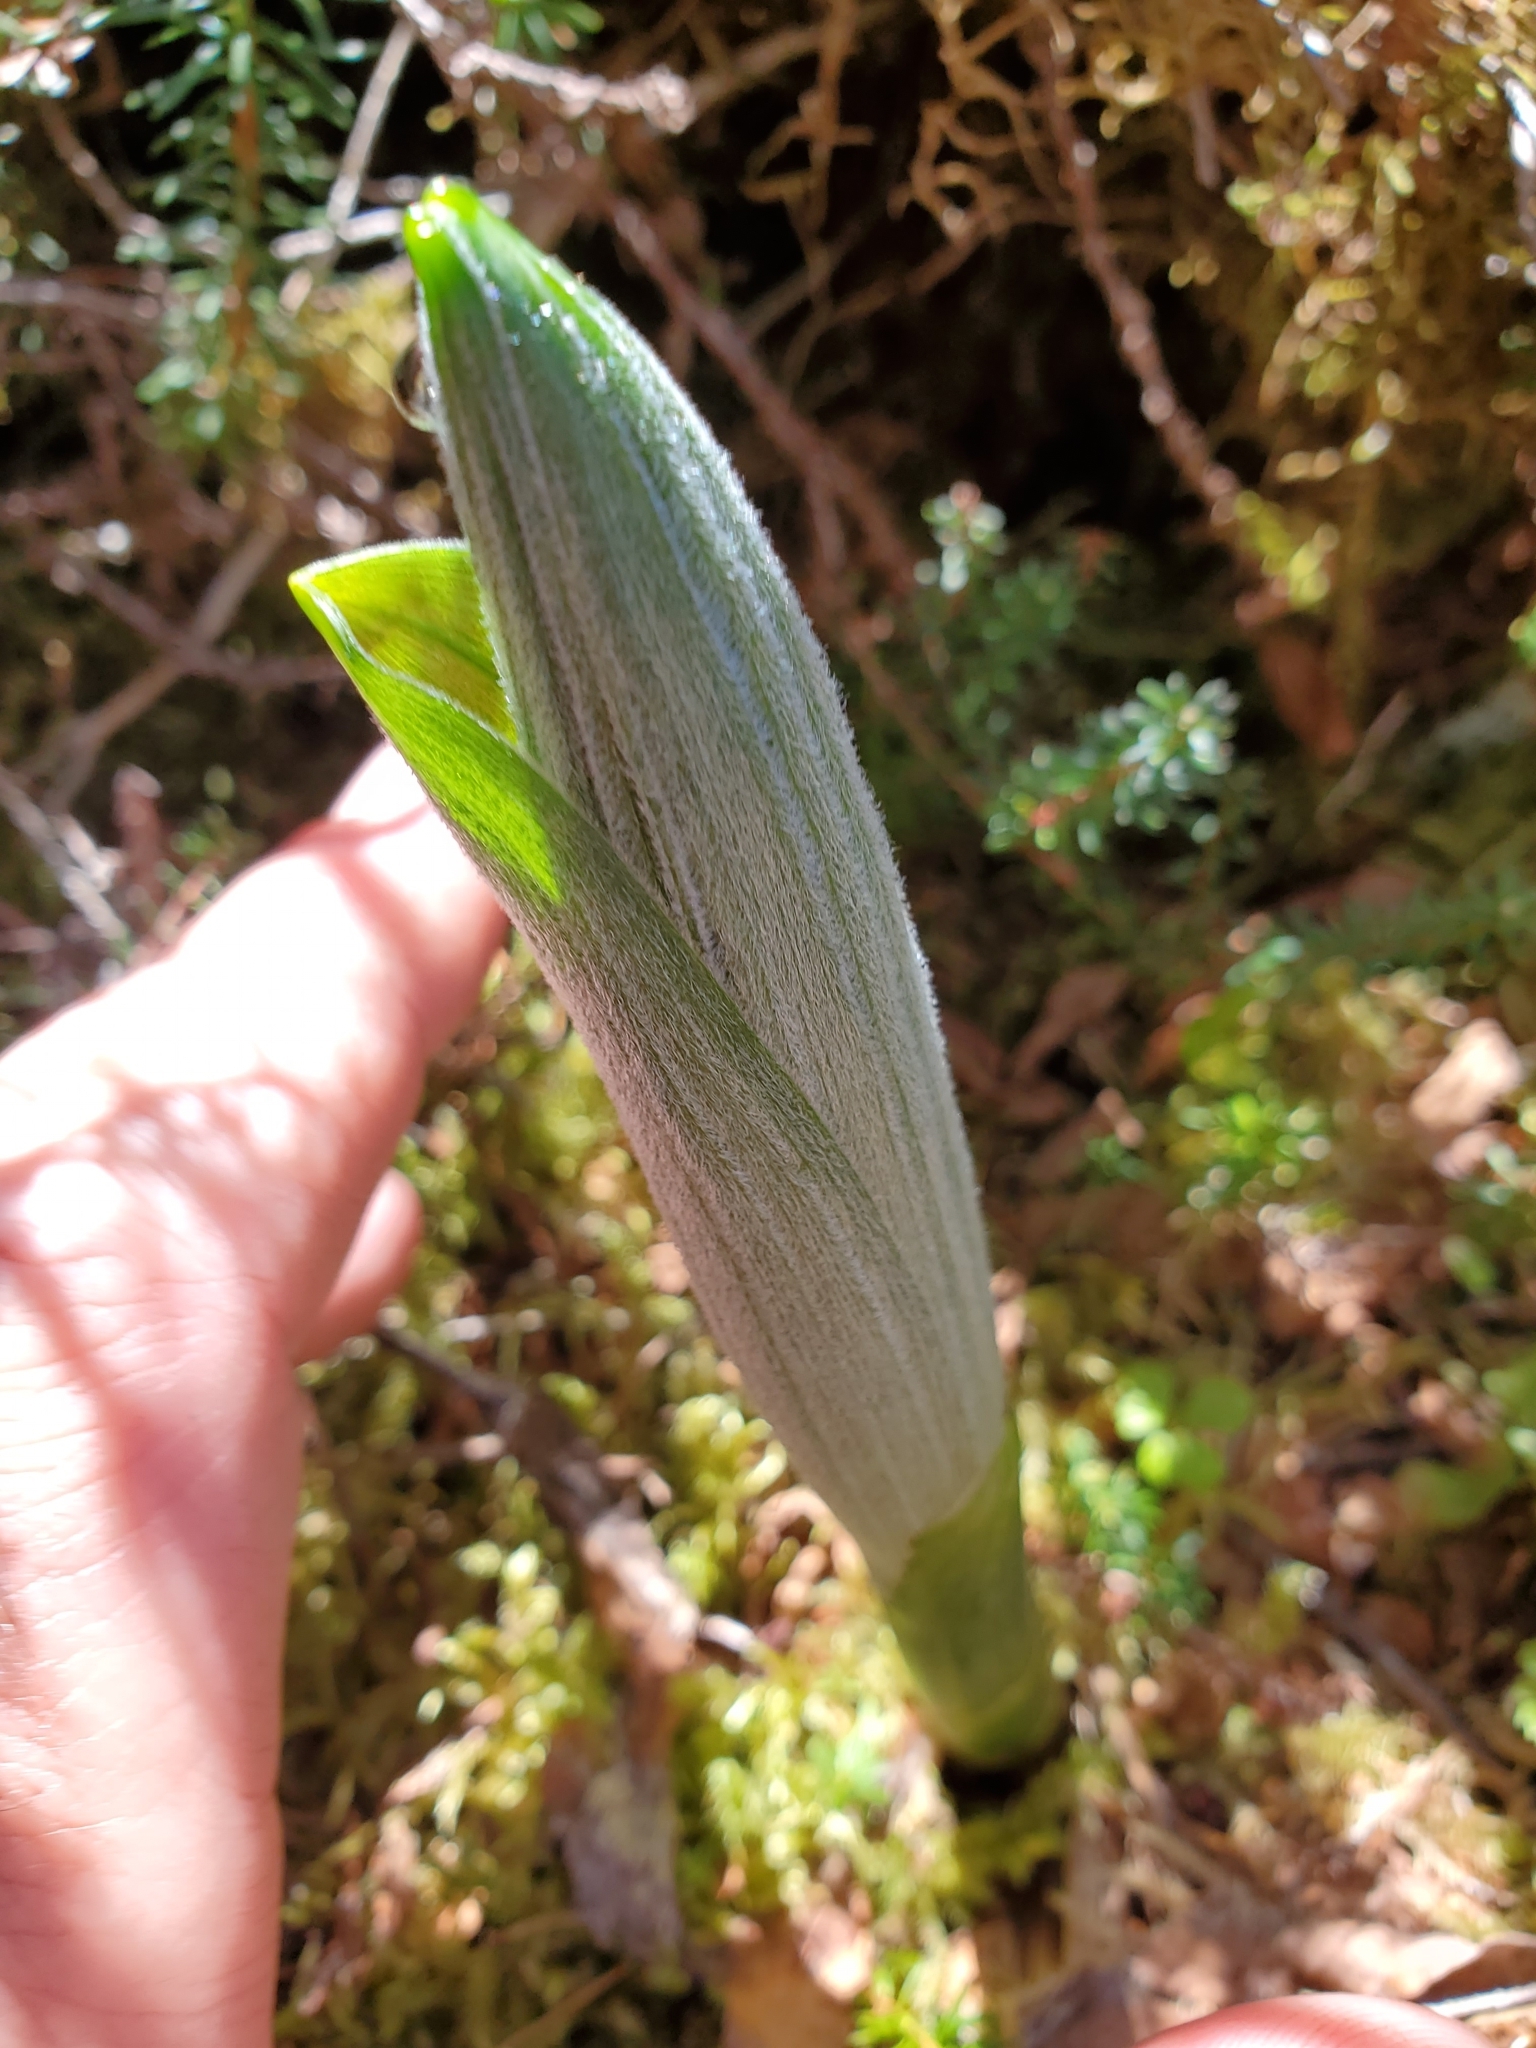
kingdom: Plantae
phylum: Tracheophyta
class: Liliopsida
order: Liliales
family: Melanthiaceae
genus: Veratrum
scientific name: Veratrum viride
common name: American false hellebore
